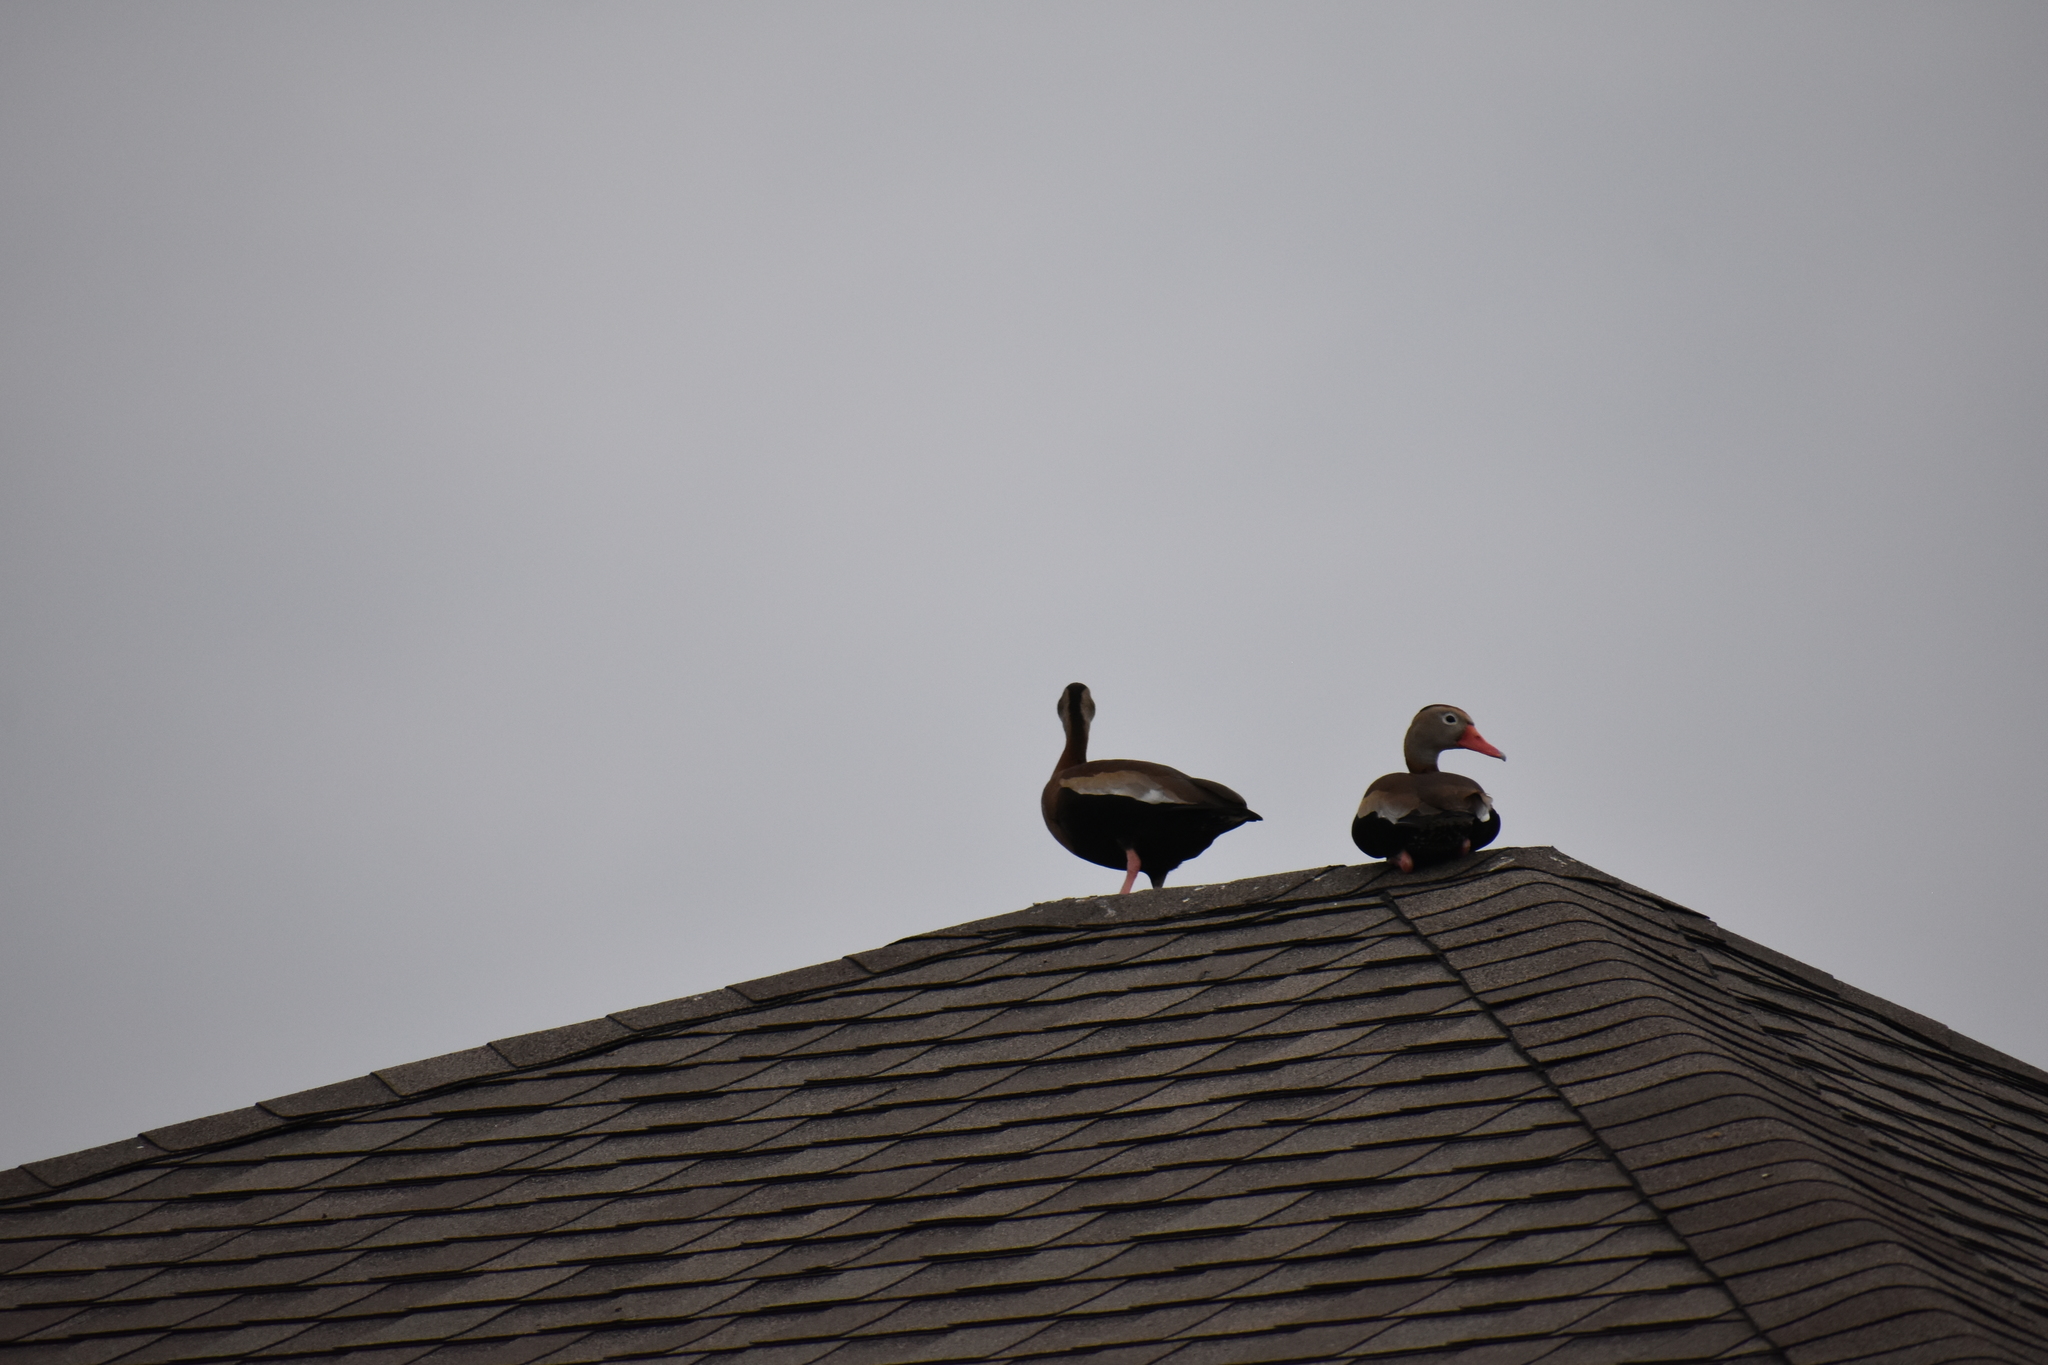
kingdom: Animalia
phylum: Chordata
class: Aves
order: Anseriformes
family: Anatidae
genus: Dendrocygna
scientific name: Dendrocygna autumnalis
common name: Black-bellied whistling duck
